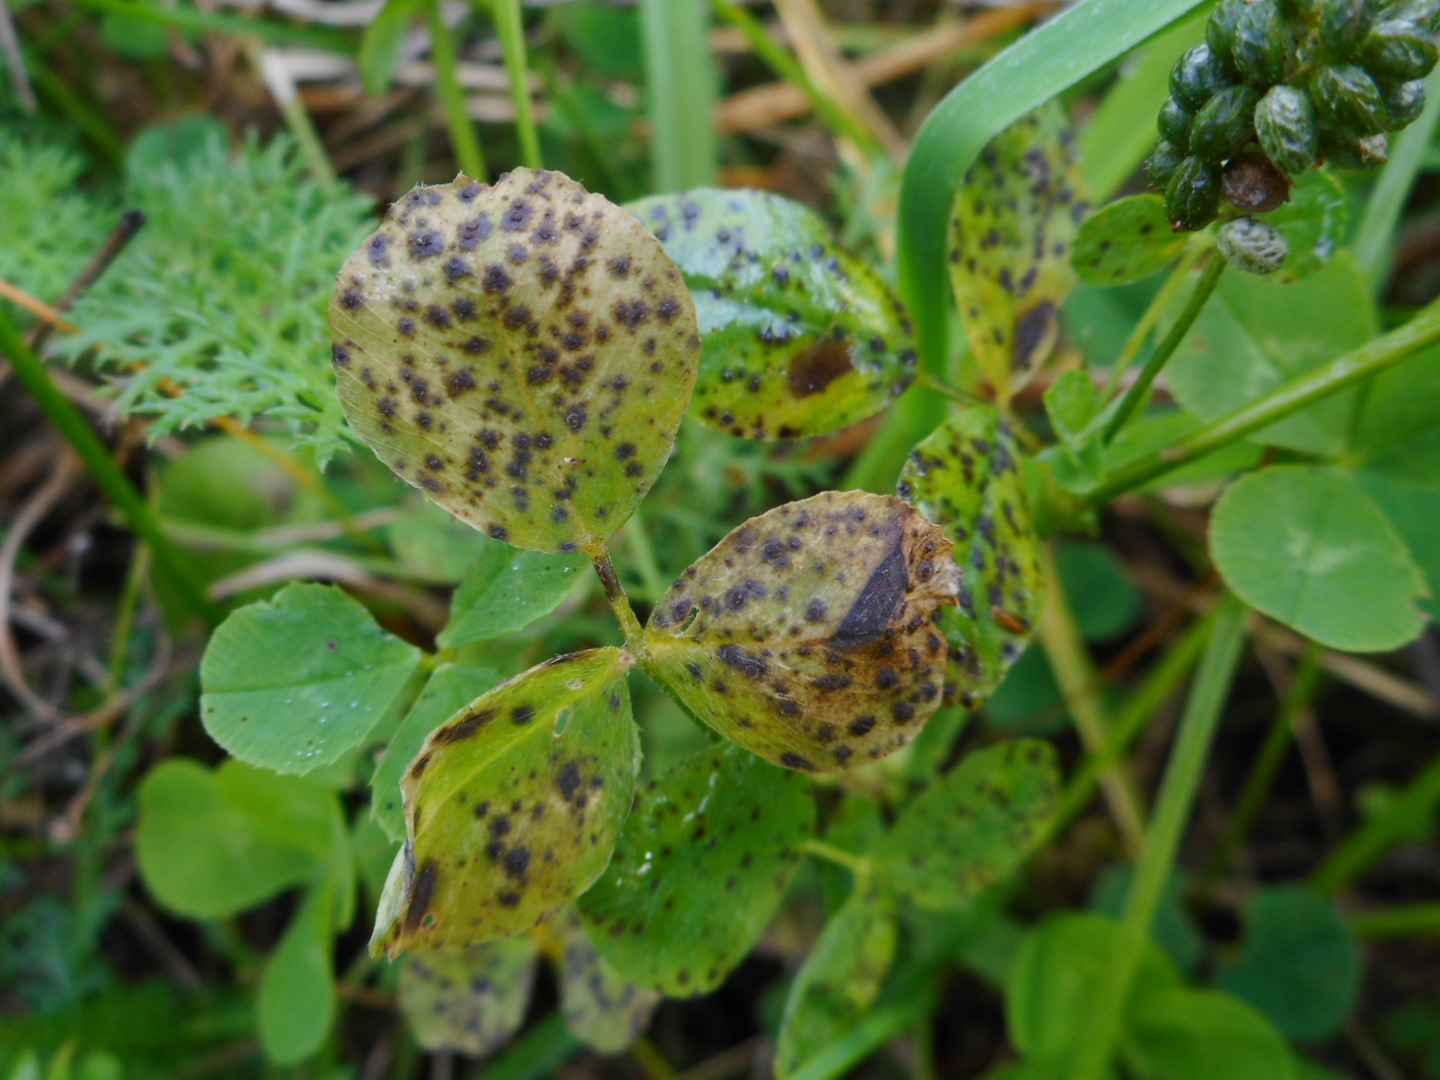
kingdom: Fungi
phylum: Ascomycota
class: Leotiomycetes
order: Helotiales
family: Drepanopezizaceae
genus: Pseudopeziza
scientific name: Pseudopeziza medicaginis
